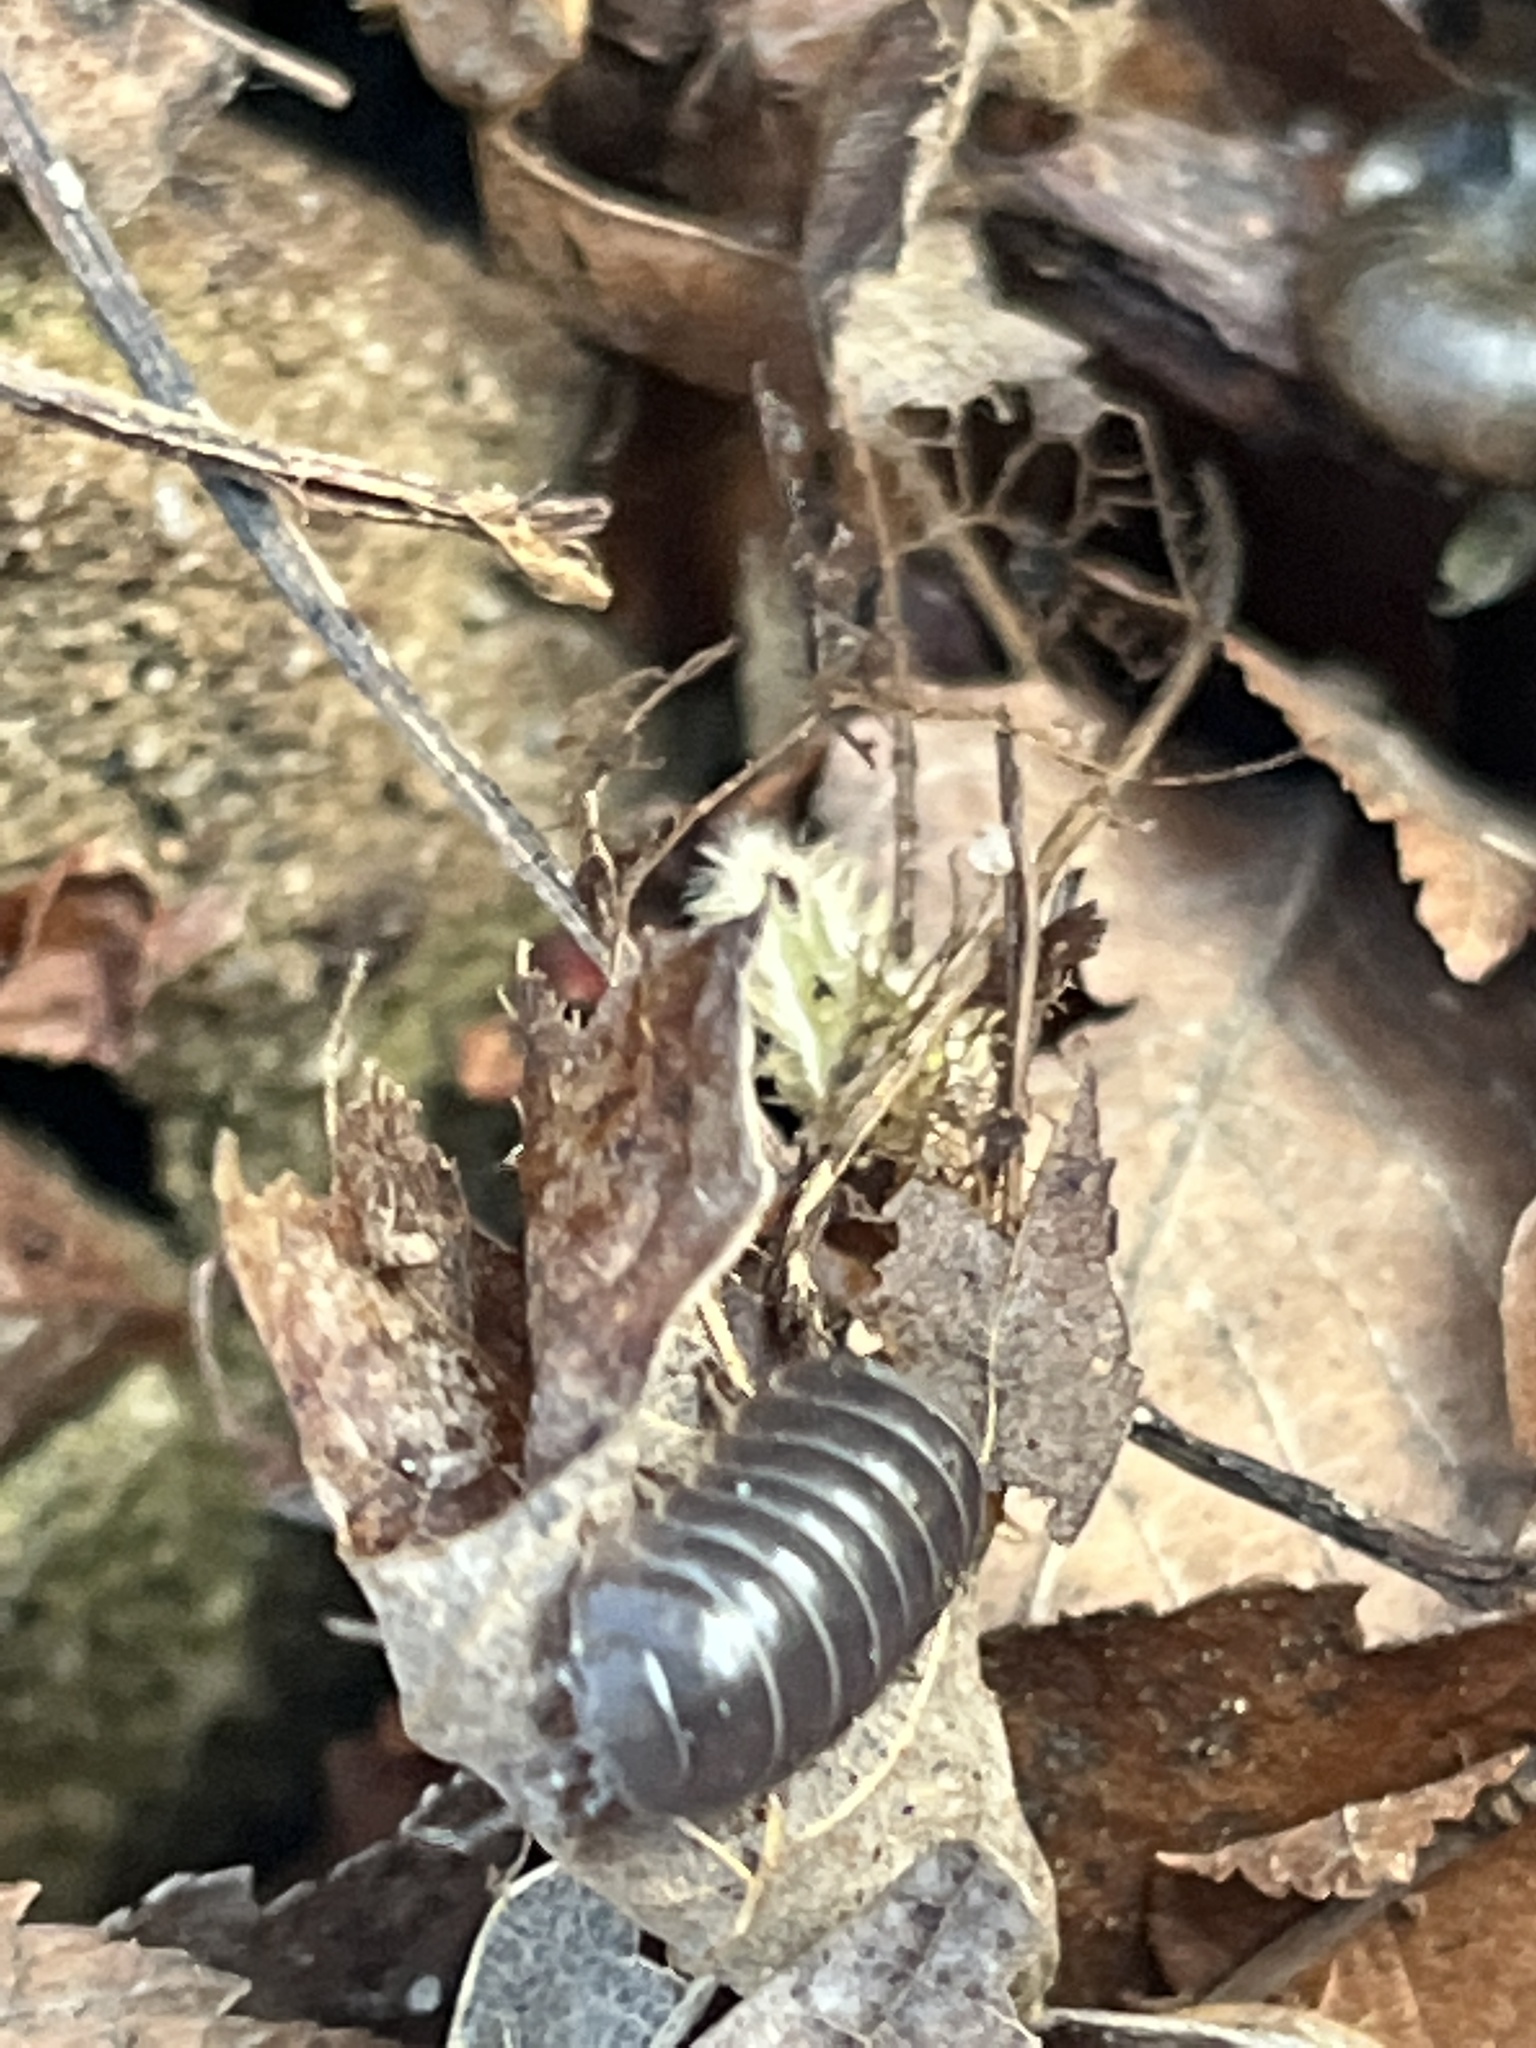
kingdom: Animalia
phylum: Arthropoda
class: Malacostraca
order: Isopoda
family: Armadillidiidae
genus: Armadillidium
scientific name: Armadillidium vulgare
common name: Common pill woodlouse
